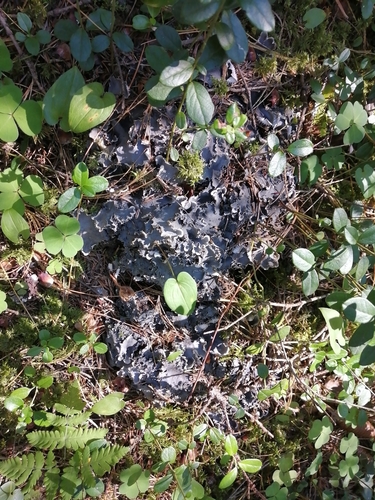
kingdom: Fungi
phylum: Ascomycota
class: Lecanoromycetes
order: Peltigerales
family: Peltigeraceae
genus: Peltigera
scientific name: Peltigera
